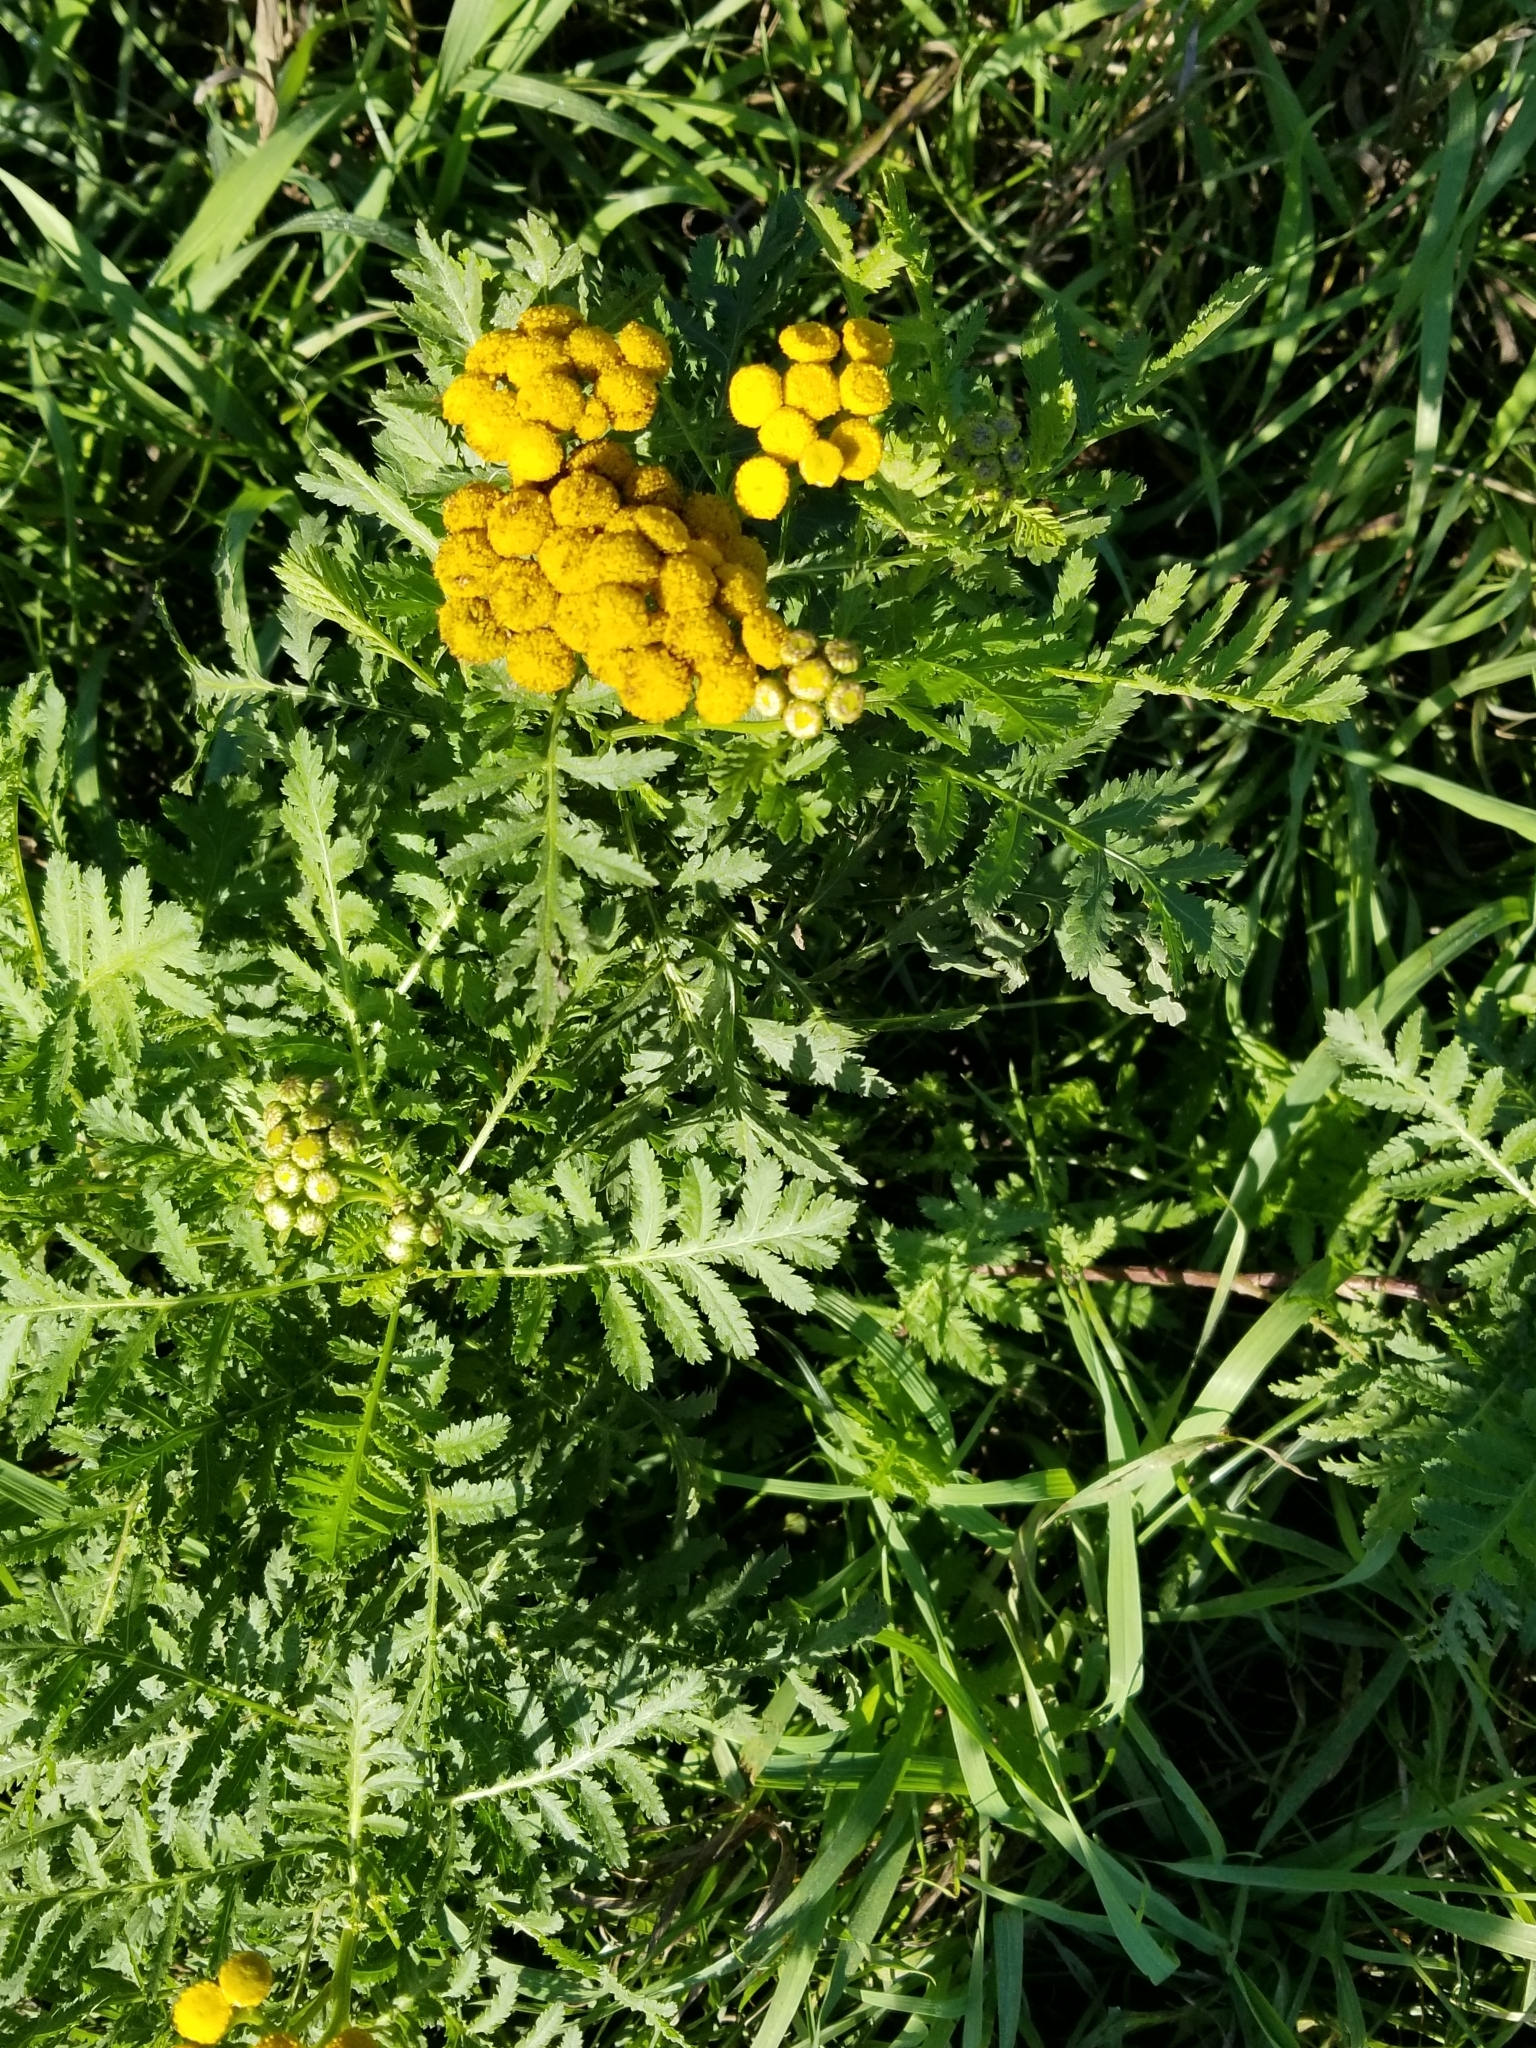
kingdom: Plantae
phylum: Tracheophyta
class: Magnoliopsida
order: Asterales
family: Asteraceae
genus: Tanacetum
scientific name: Tanacetum vulgare
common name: Common tansy
